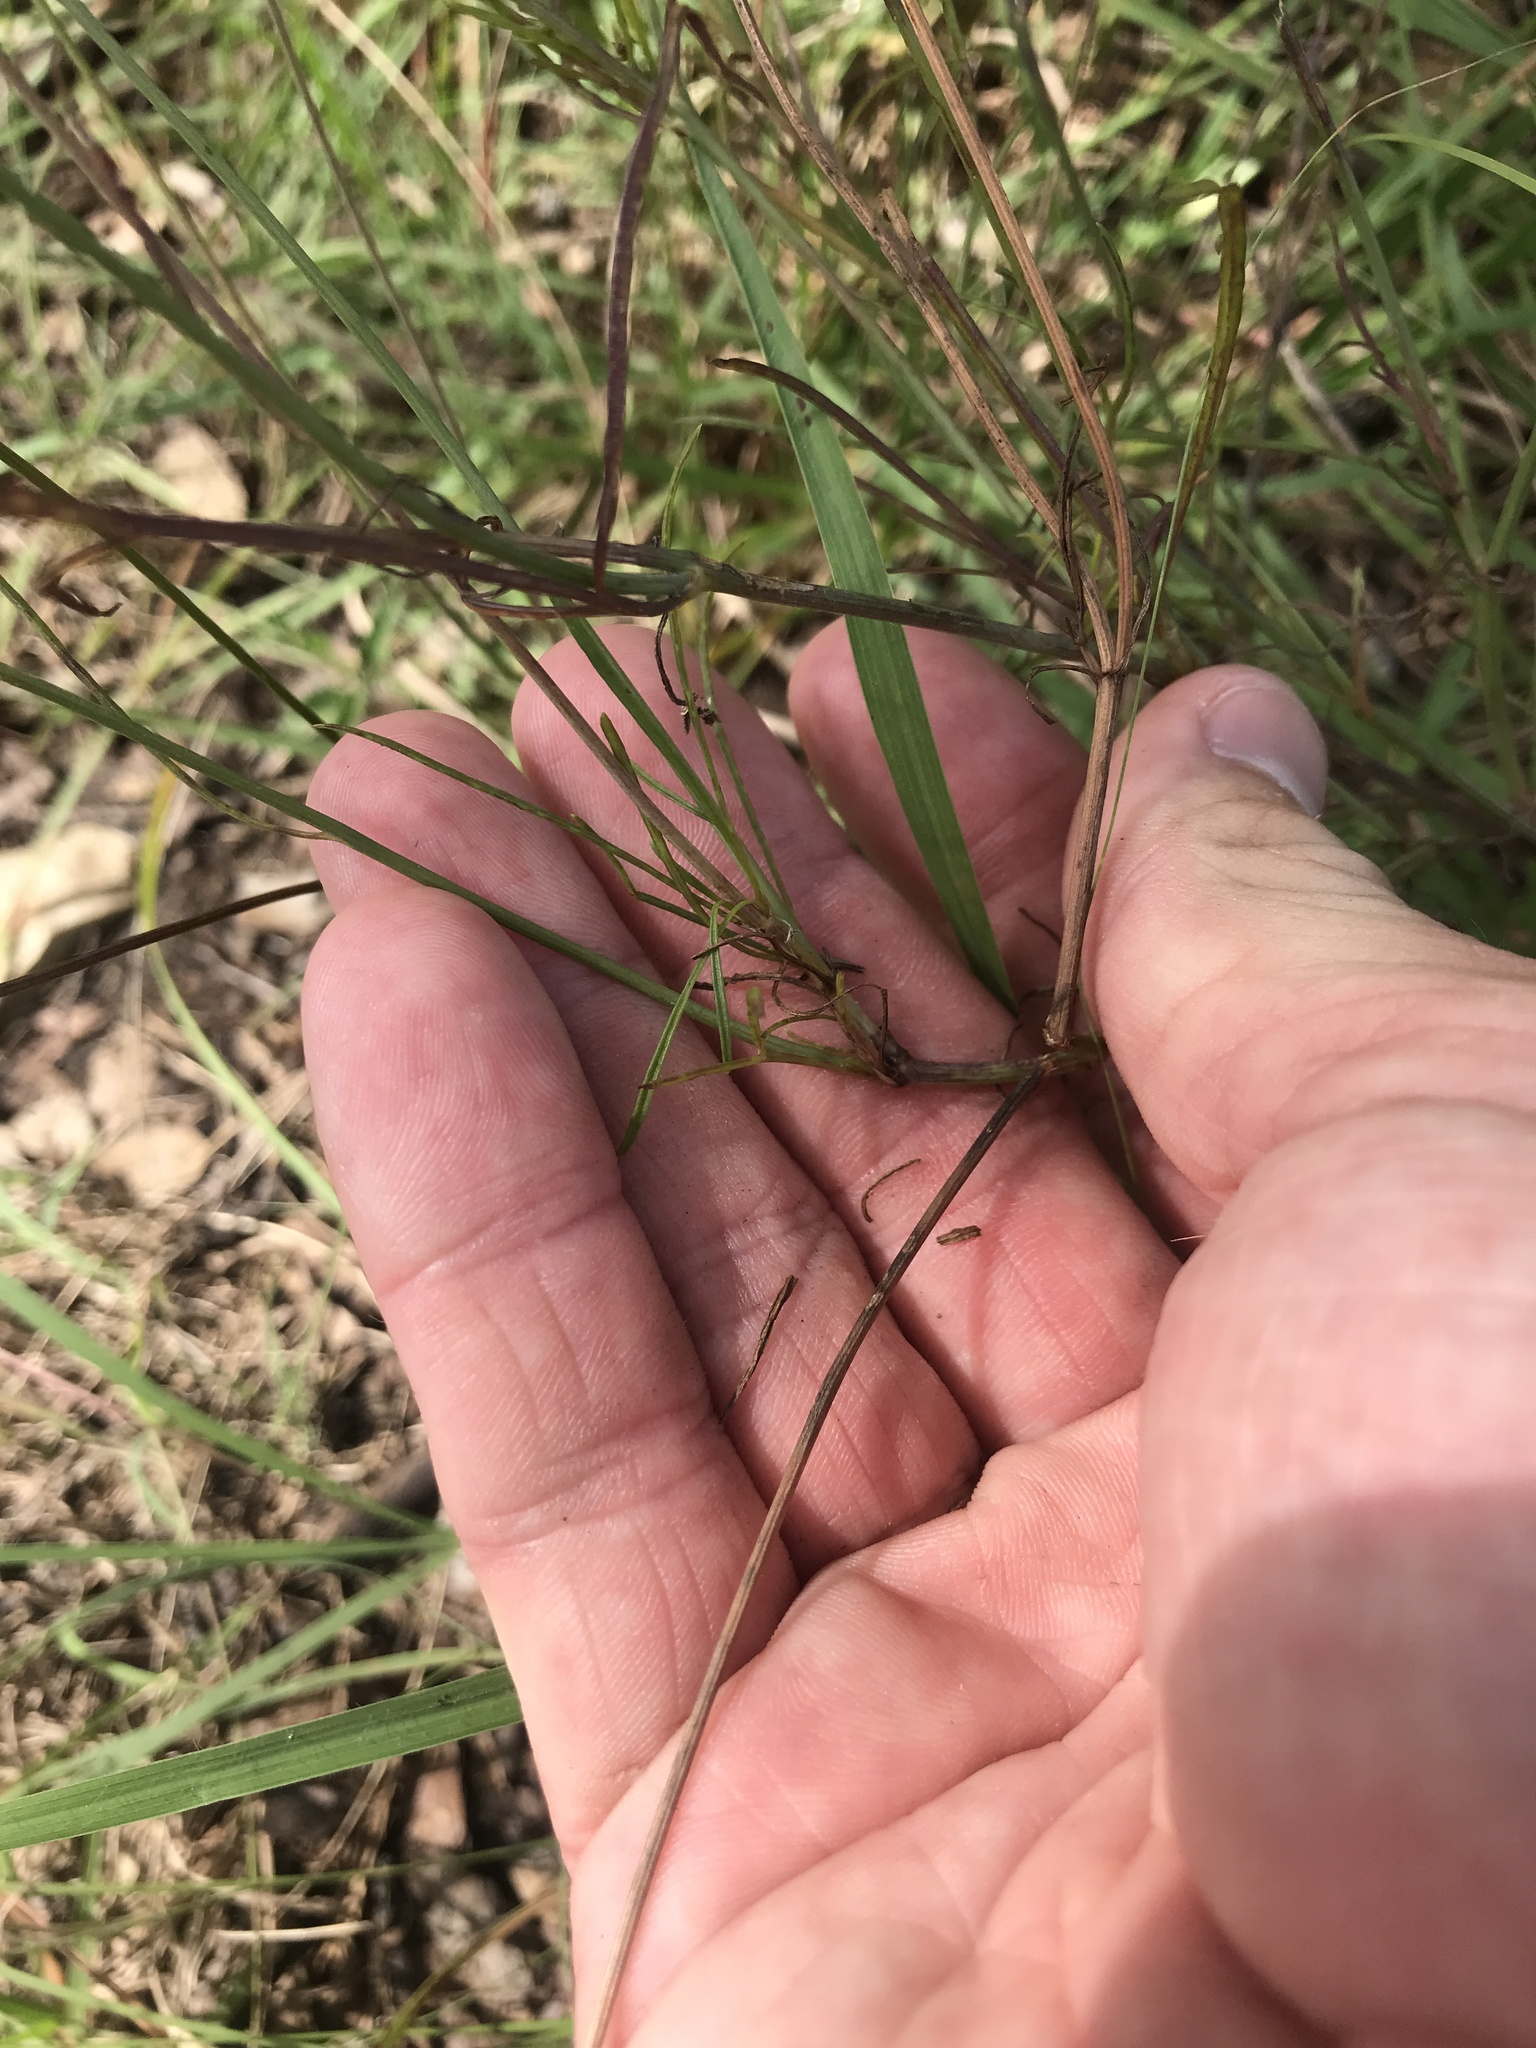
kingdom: Plantae
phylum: Tracheophyta
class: Magnoliopsida
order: Asterales
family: Asteraceae
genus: Thelesperma
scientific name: Thelesperma filifolium
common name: Stiff greenthread
